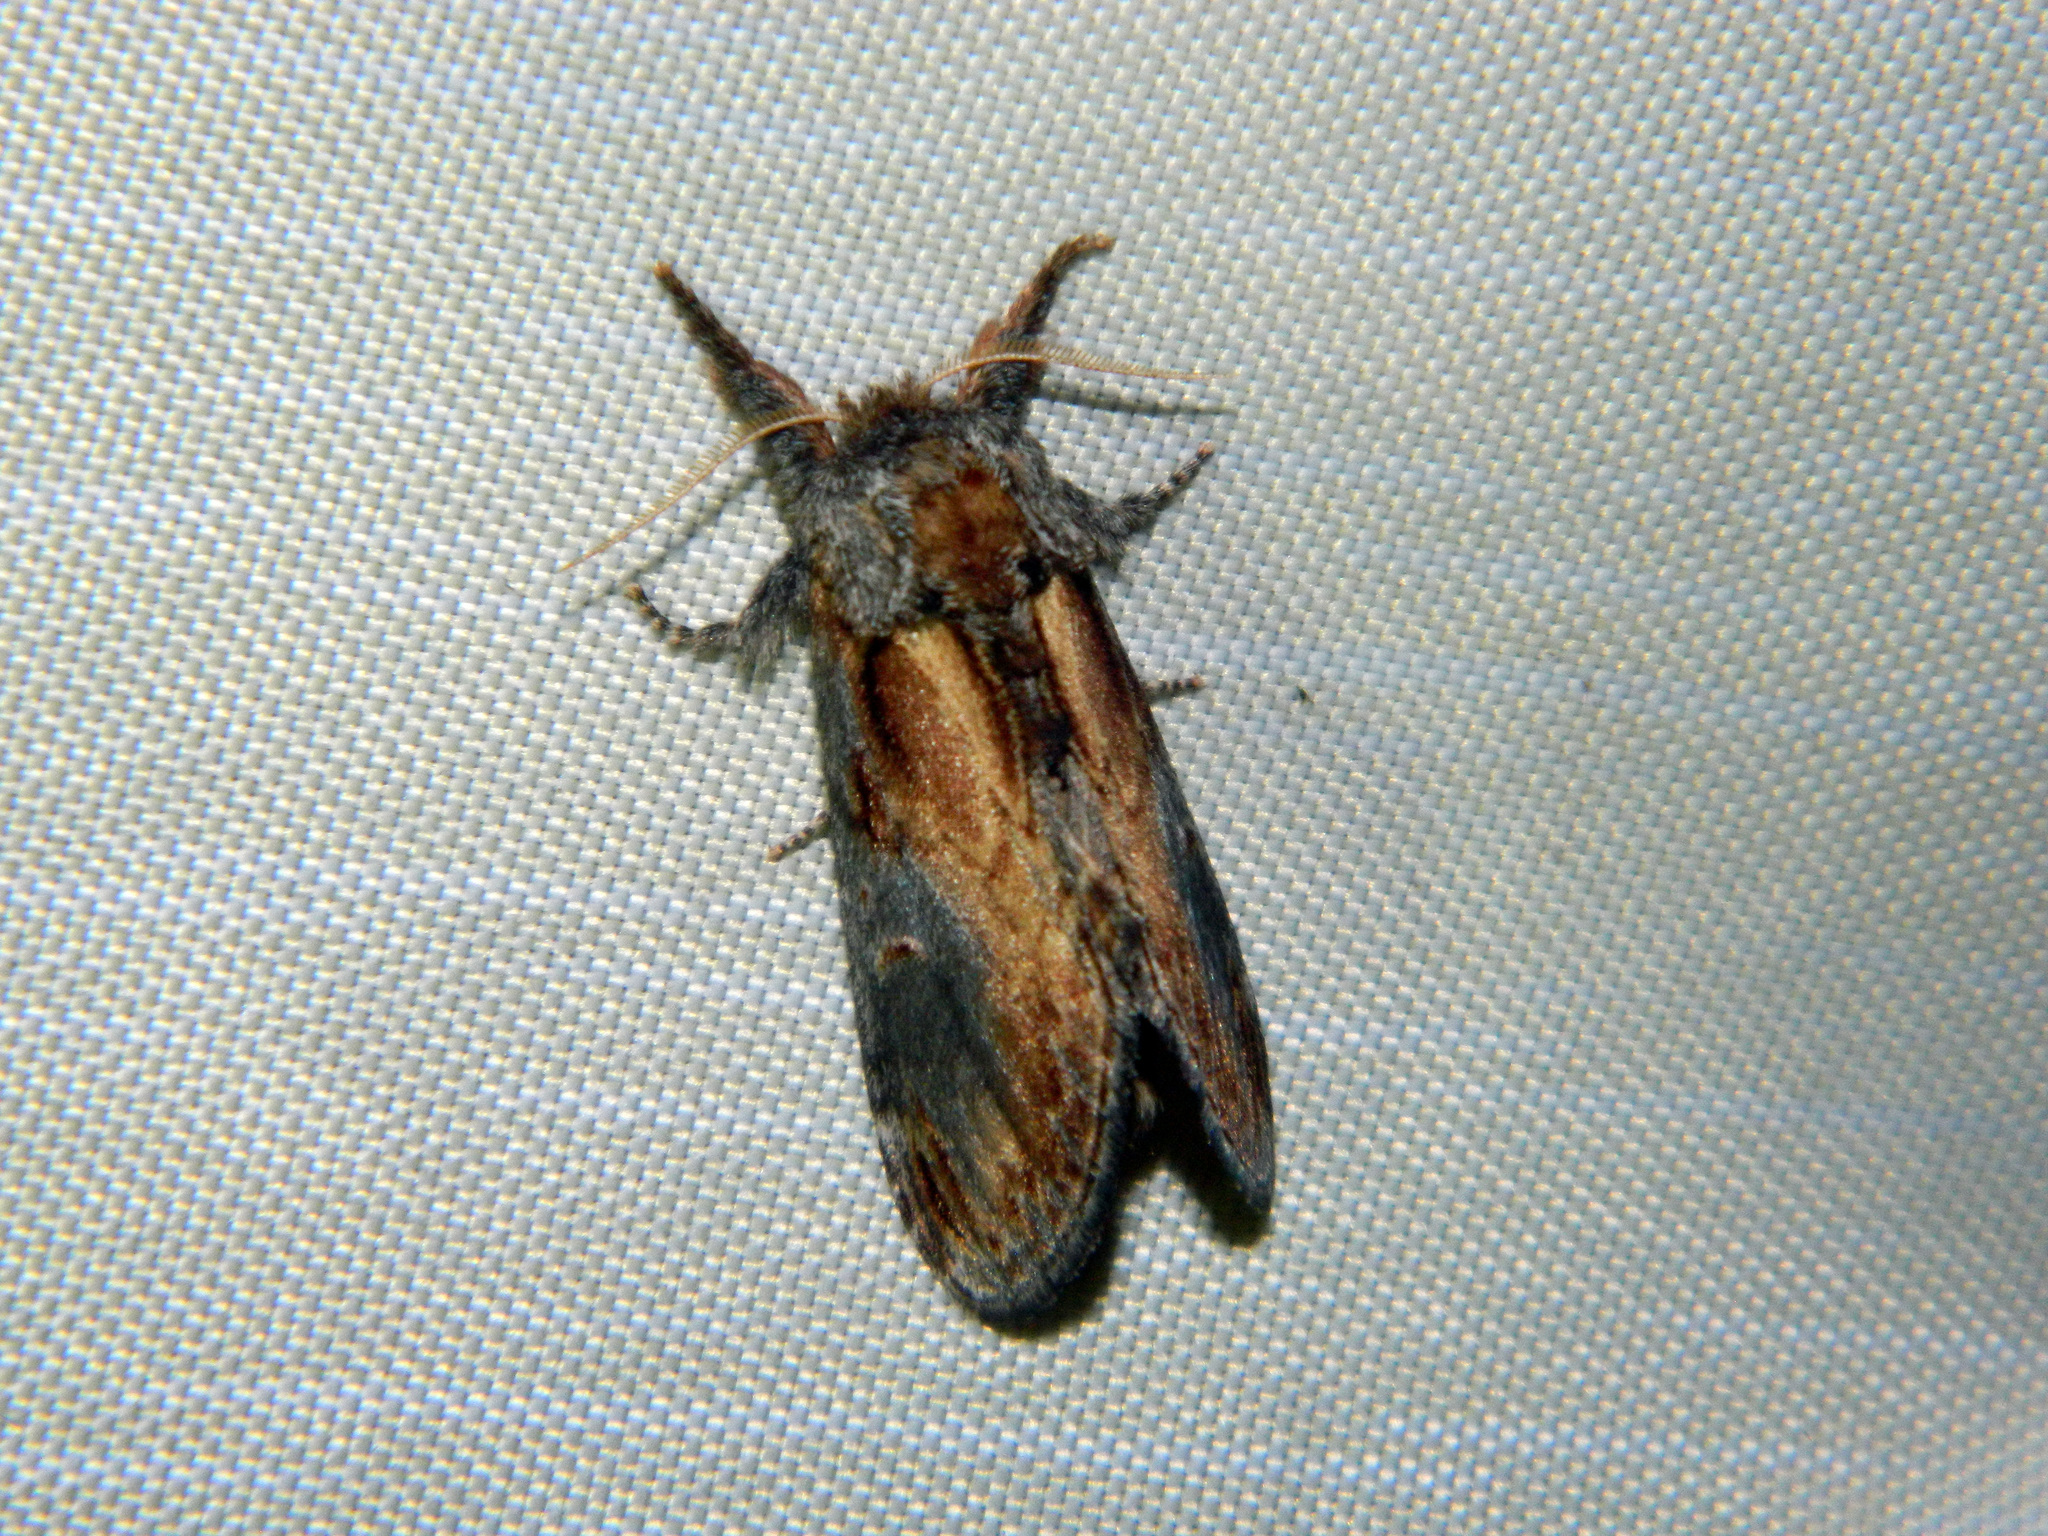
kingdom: Animalia
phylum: Arthropoda
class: Insecta
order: Lepidoptera
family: Notodontidae
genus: Notodonta
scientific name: Notodonta scitipennis
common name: Finned-willow prominent moth
